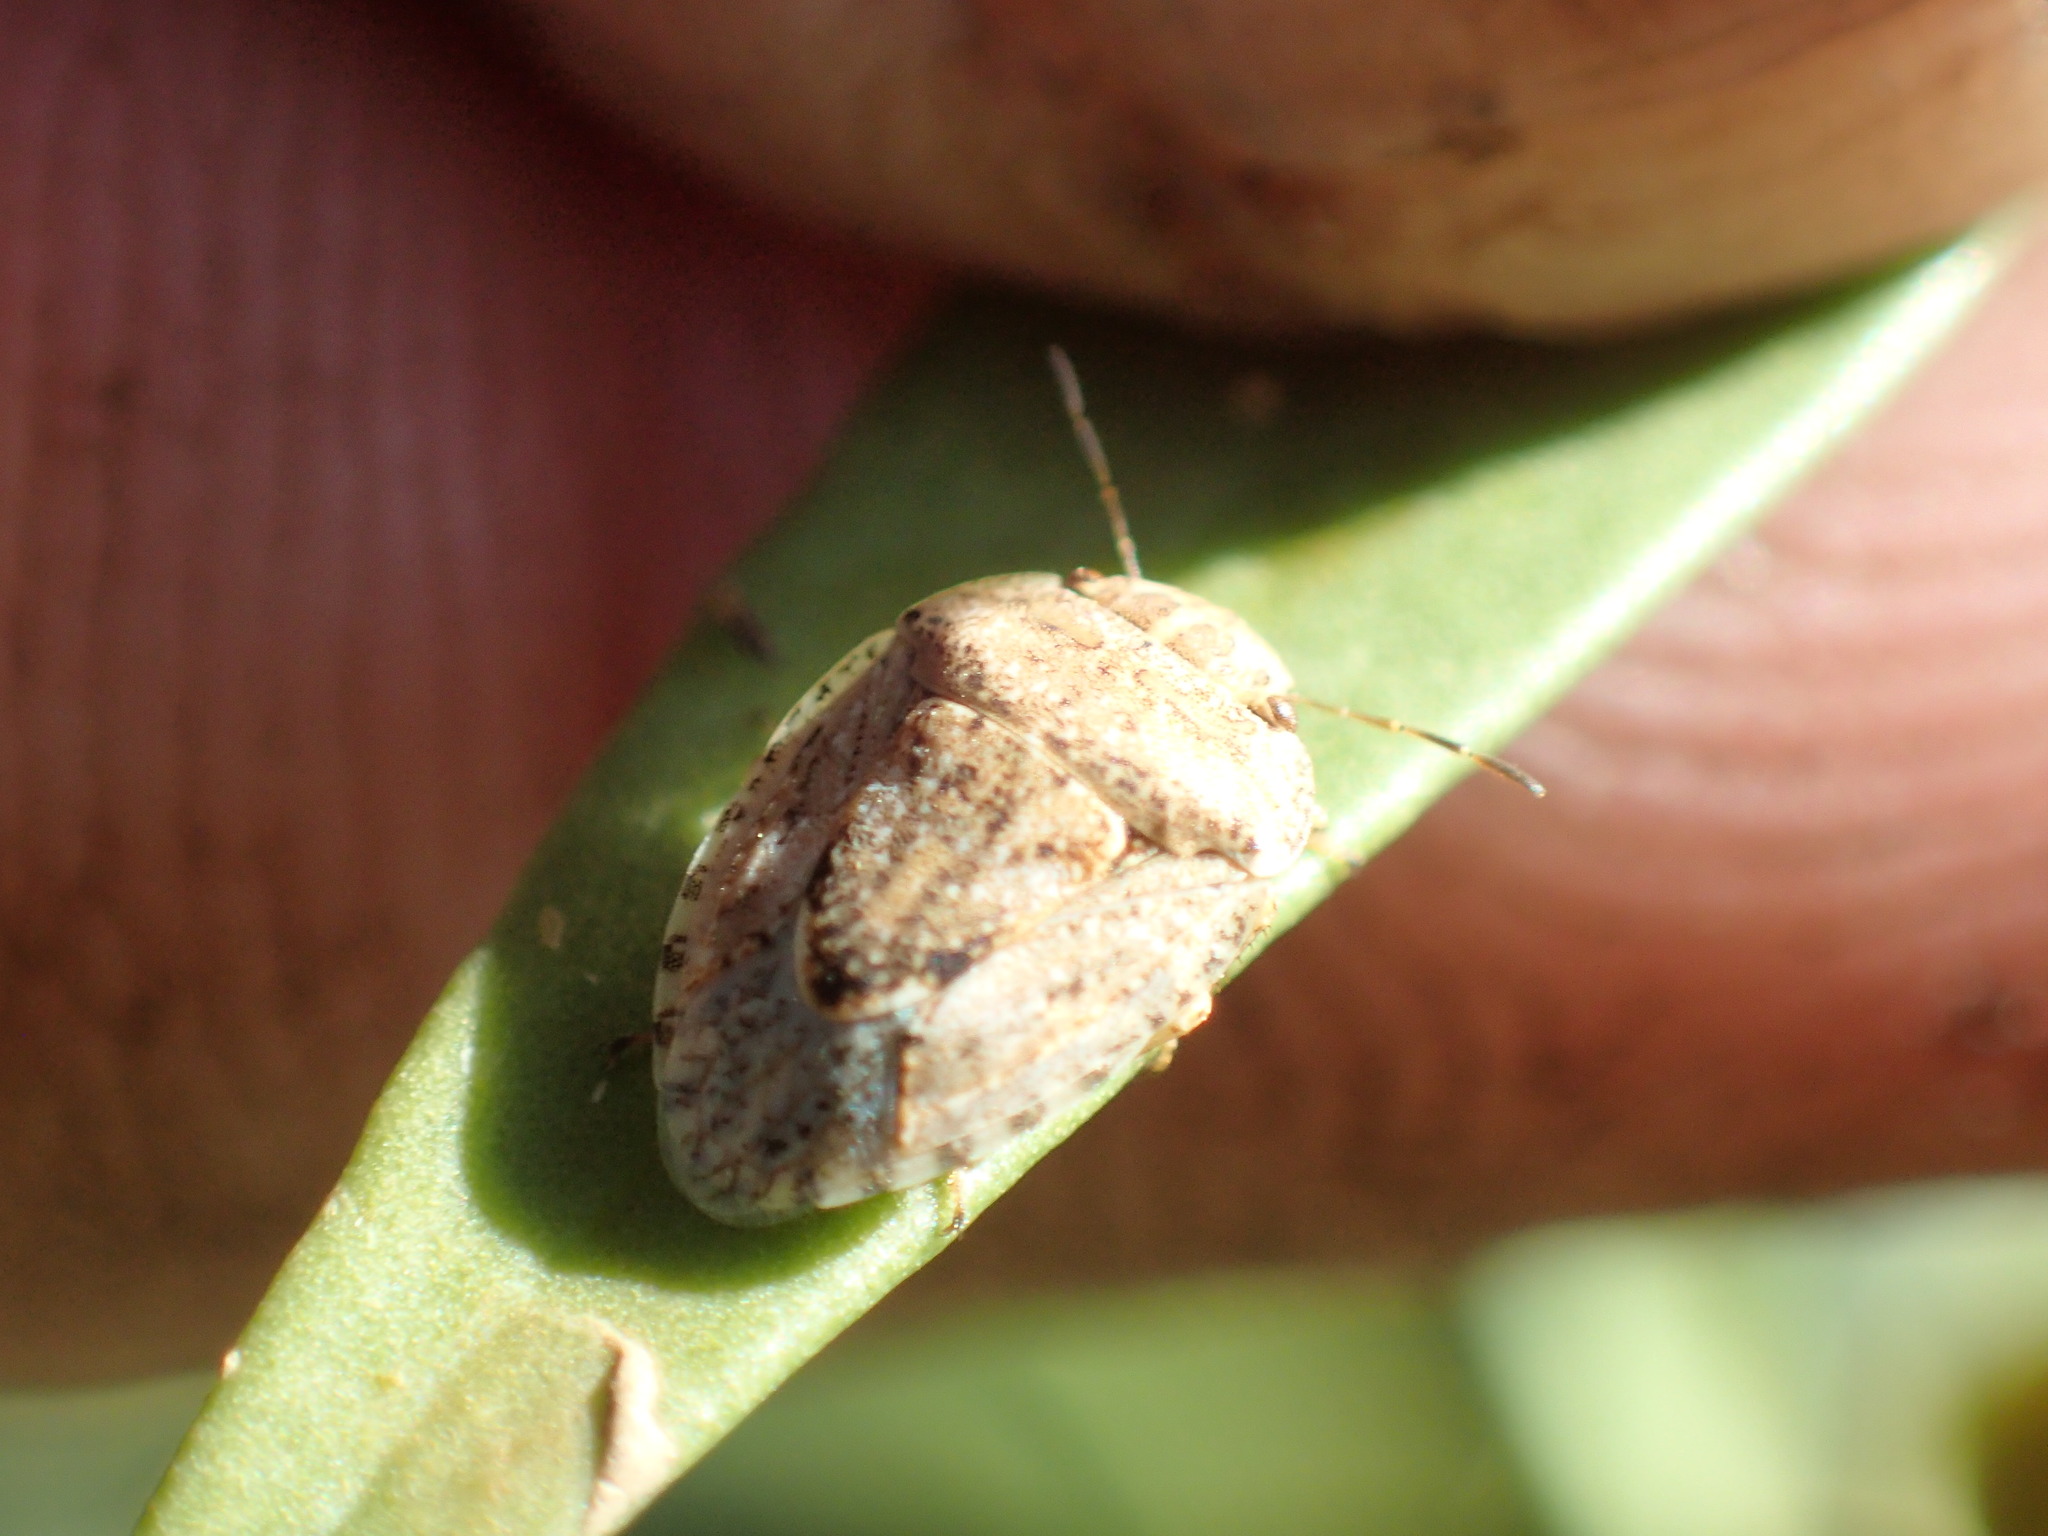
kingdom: Animalia
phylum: Arthropoda
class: Insecta
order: Hemiptera
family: Pentatomidae
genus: Kapunda
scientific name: Kapunda traughtoni
